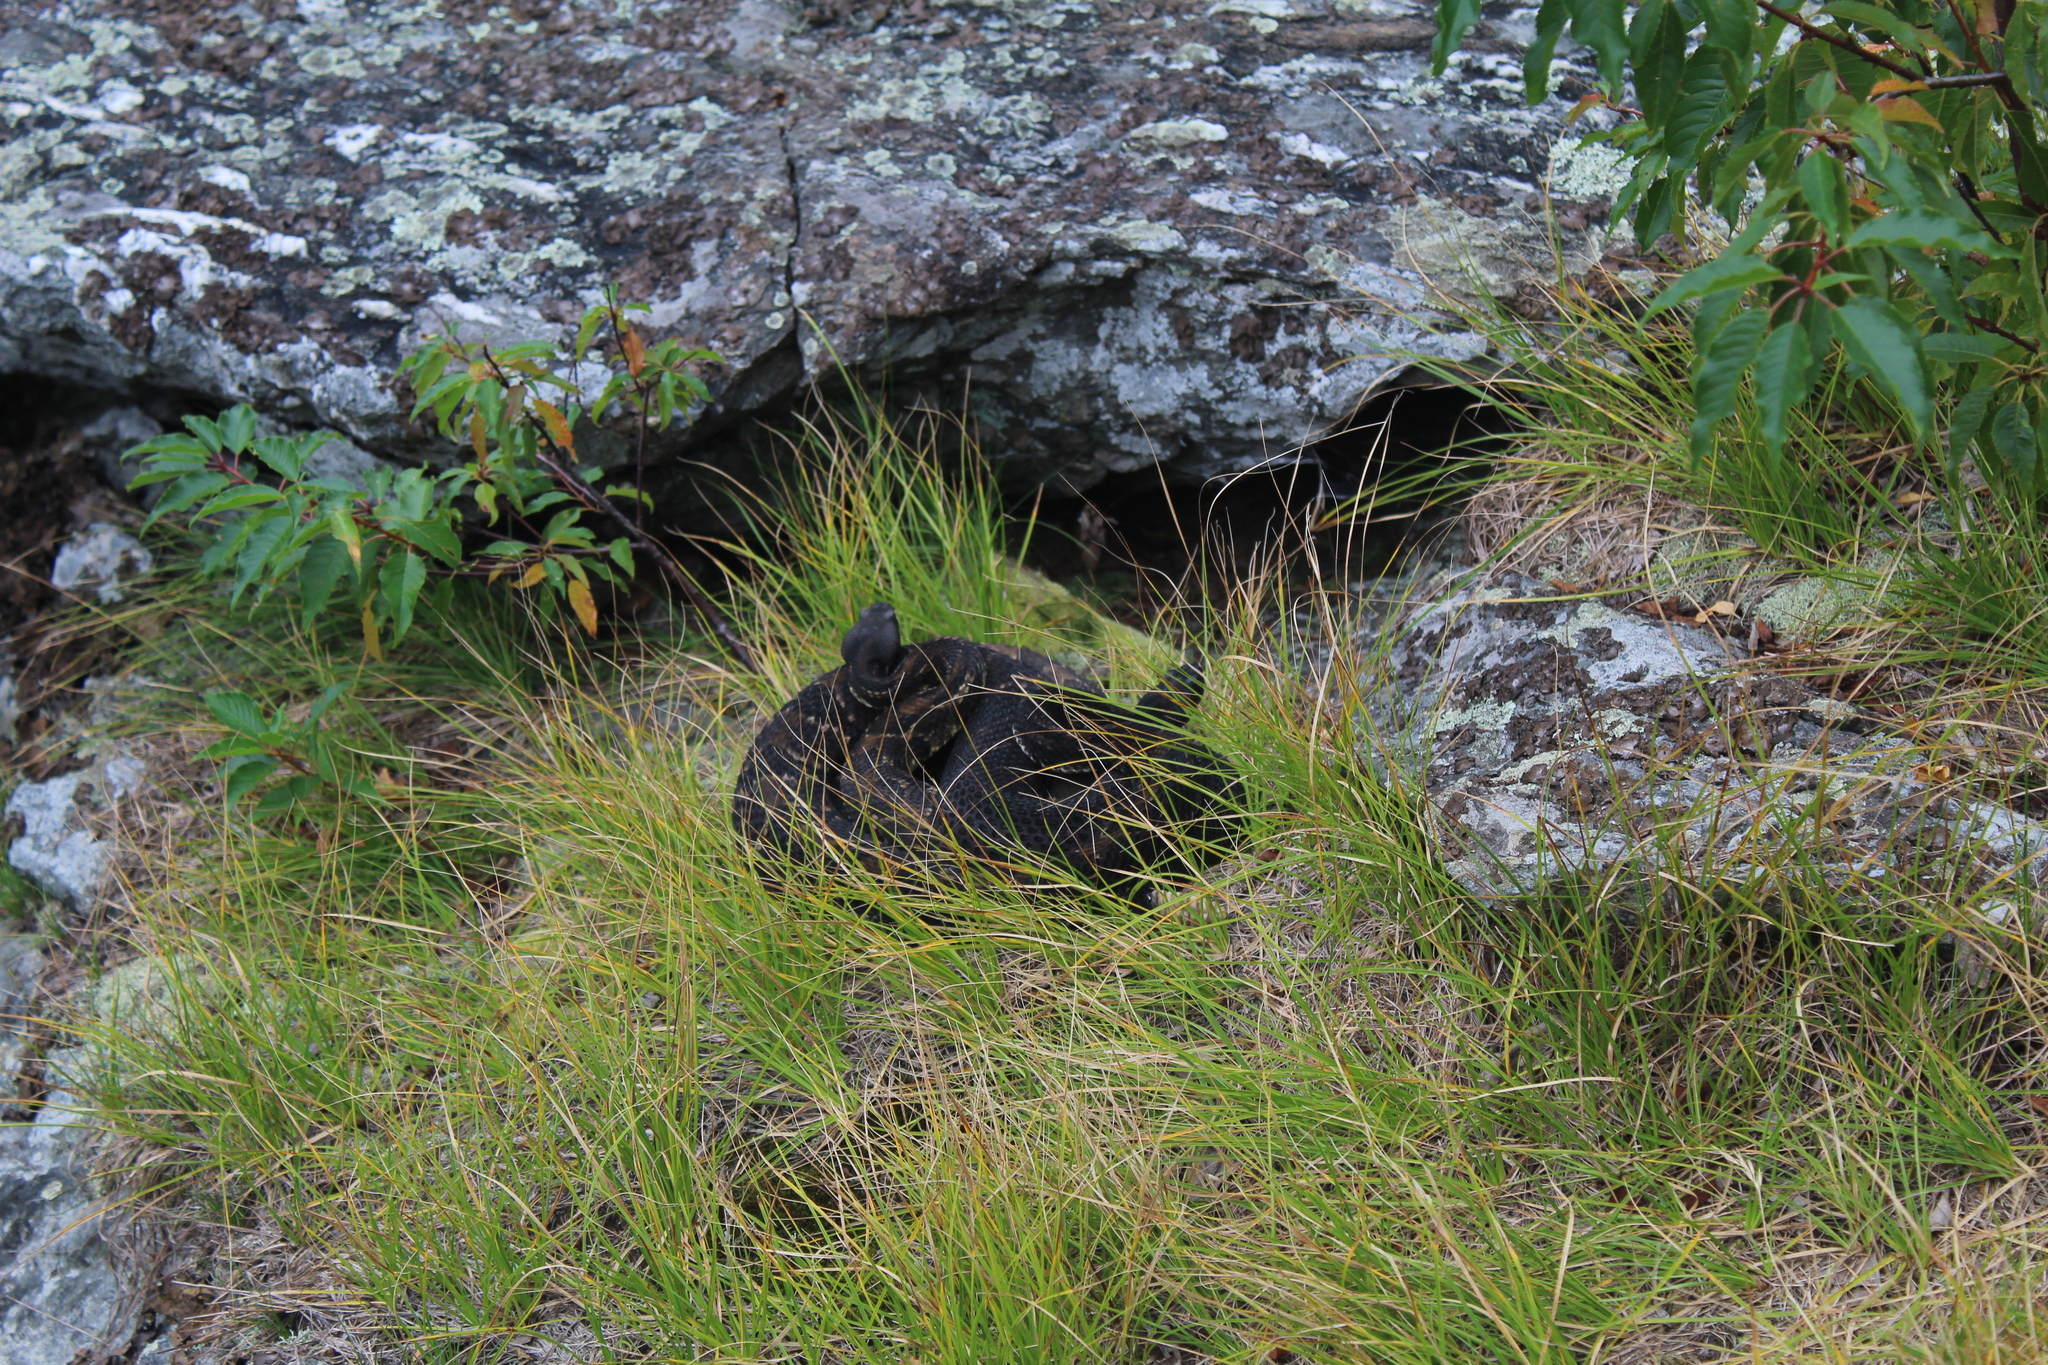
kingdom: Animalia
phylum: Chordata
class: Squamata
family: Viperidae
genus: Crotalus
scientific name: Crotalus horridus
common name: Timber rattlesnake
